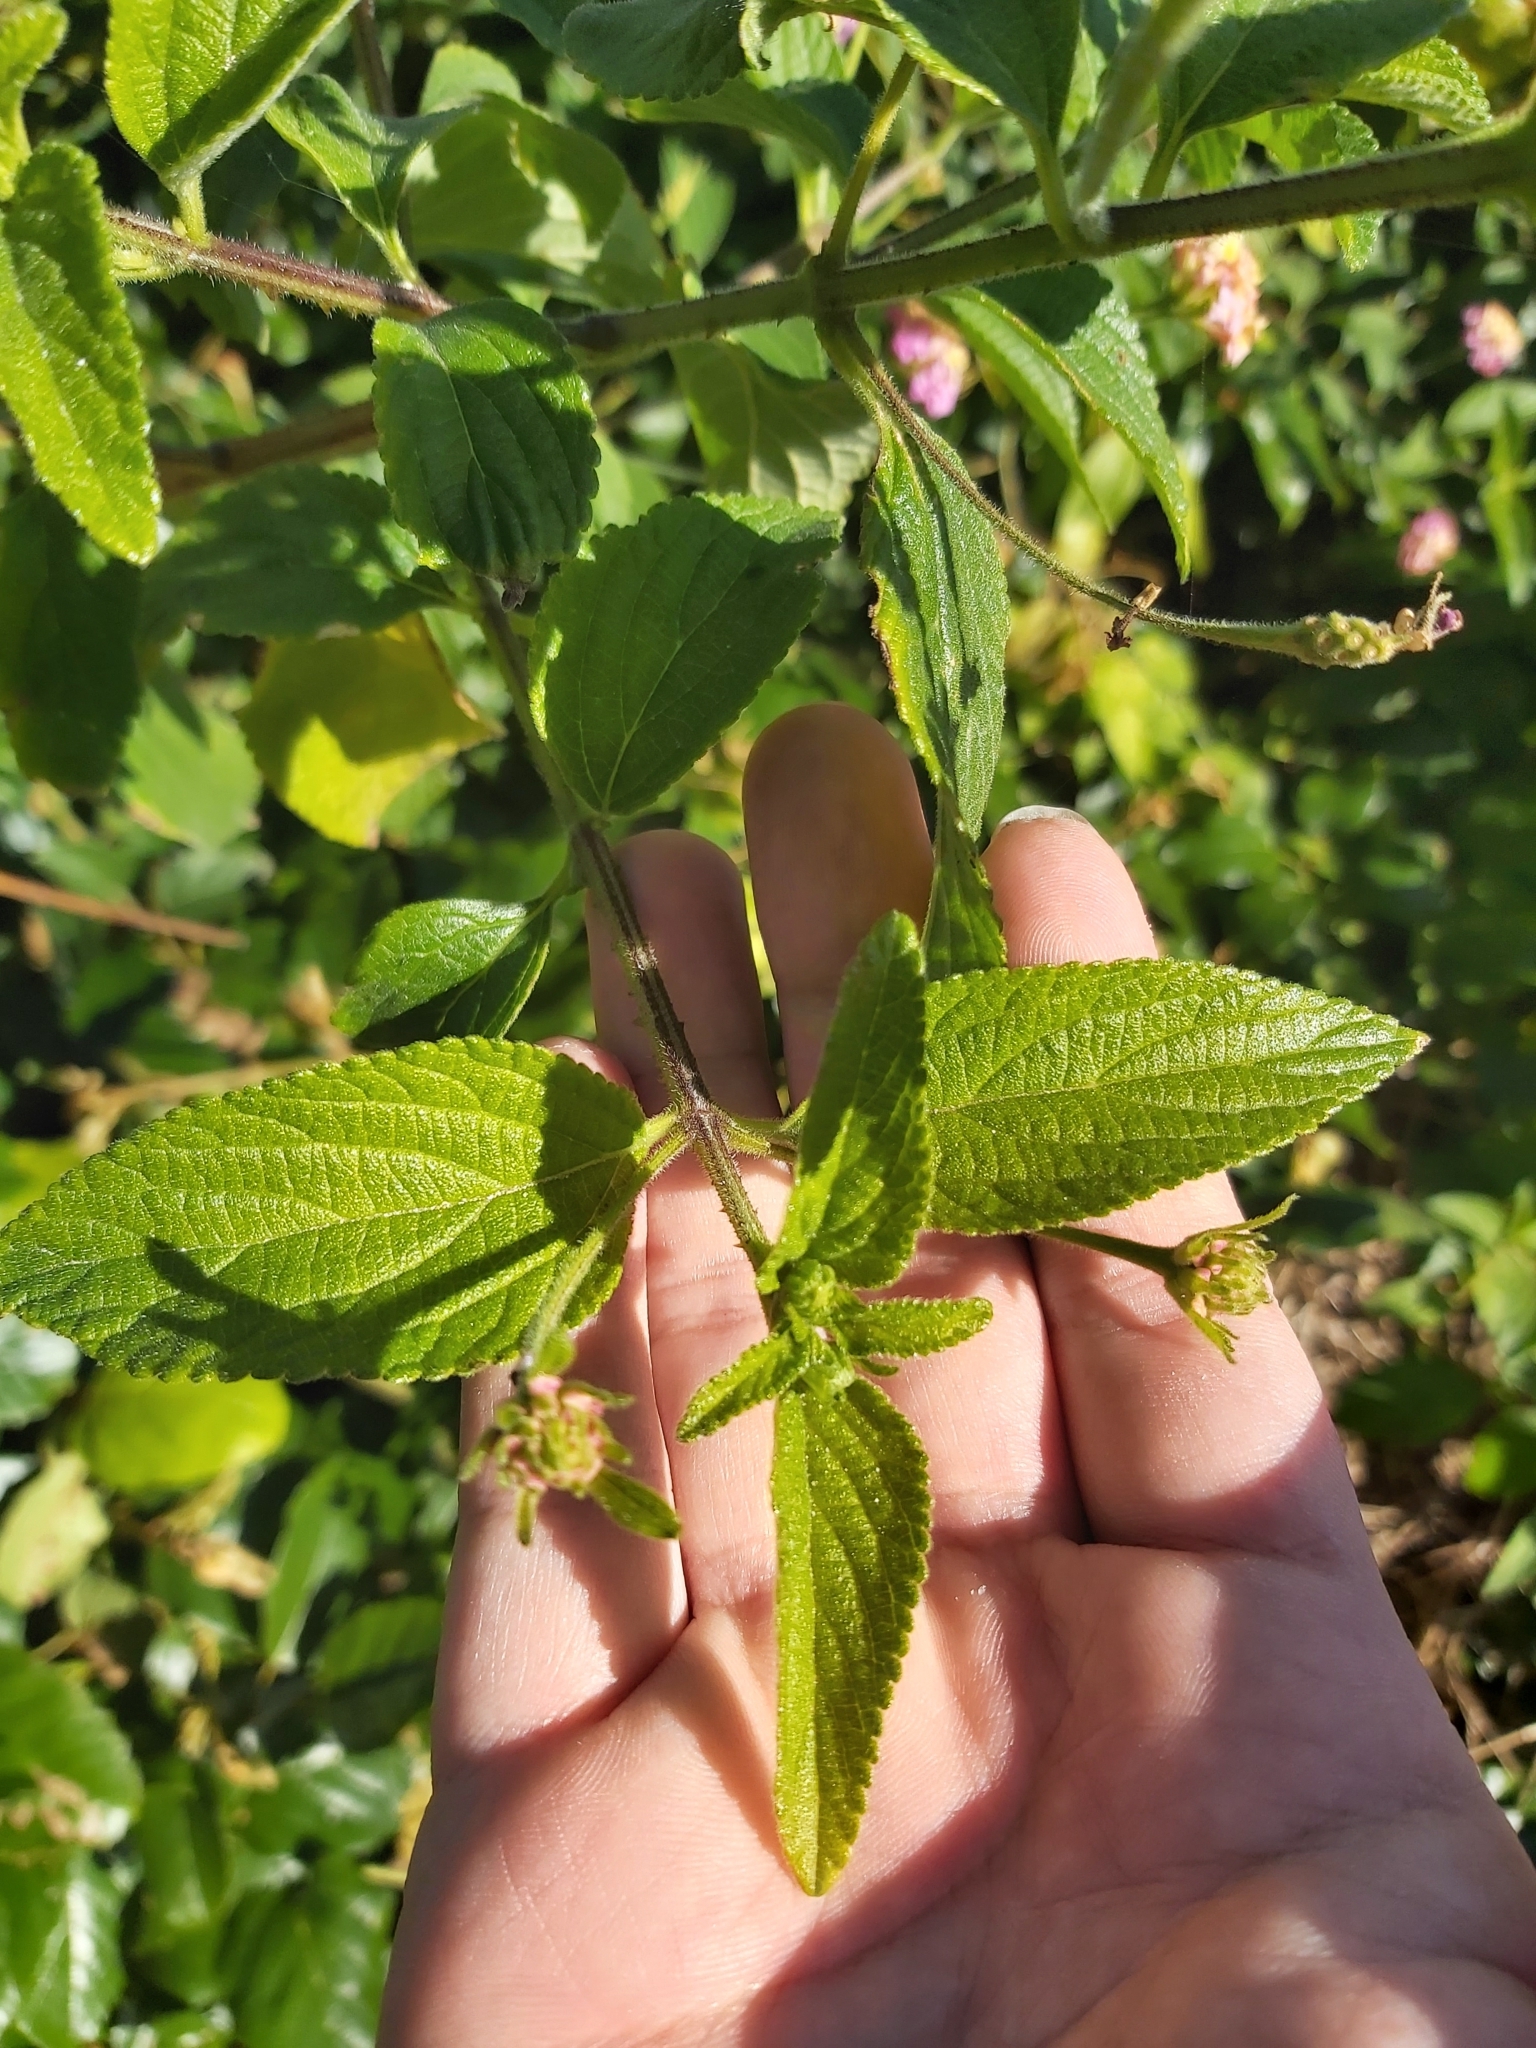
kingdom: Plantae
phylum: Tracheophyta
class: Magnoliopsida
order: Lamiales
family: Verbenaceae
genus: Lantana
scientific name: Lantana camara
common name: Lantana
